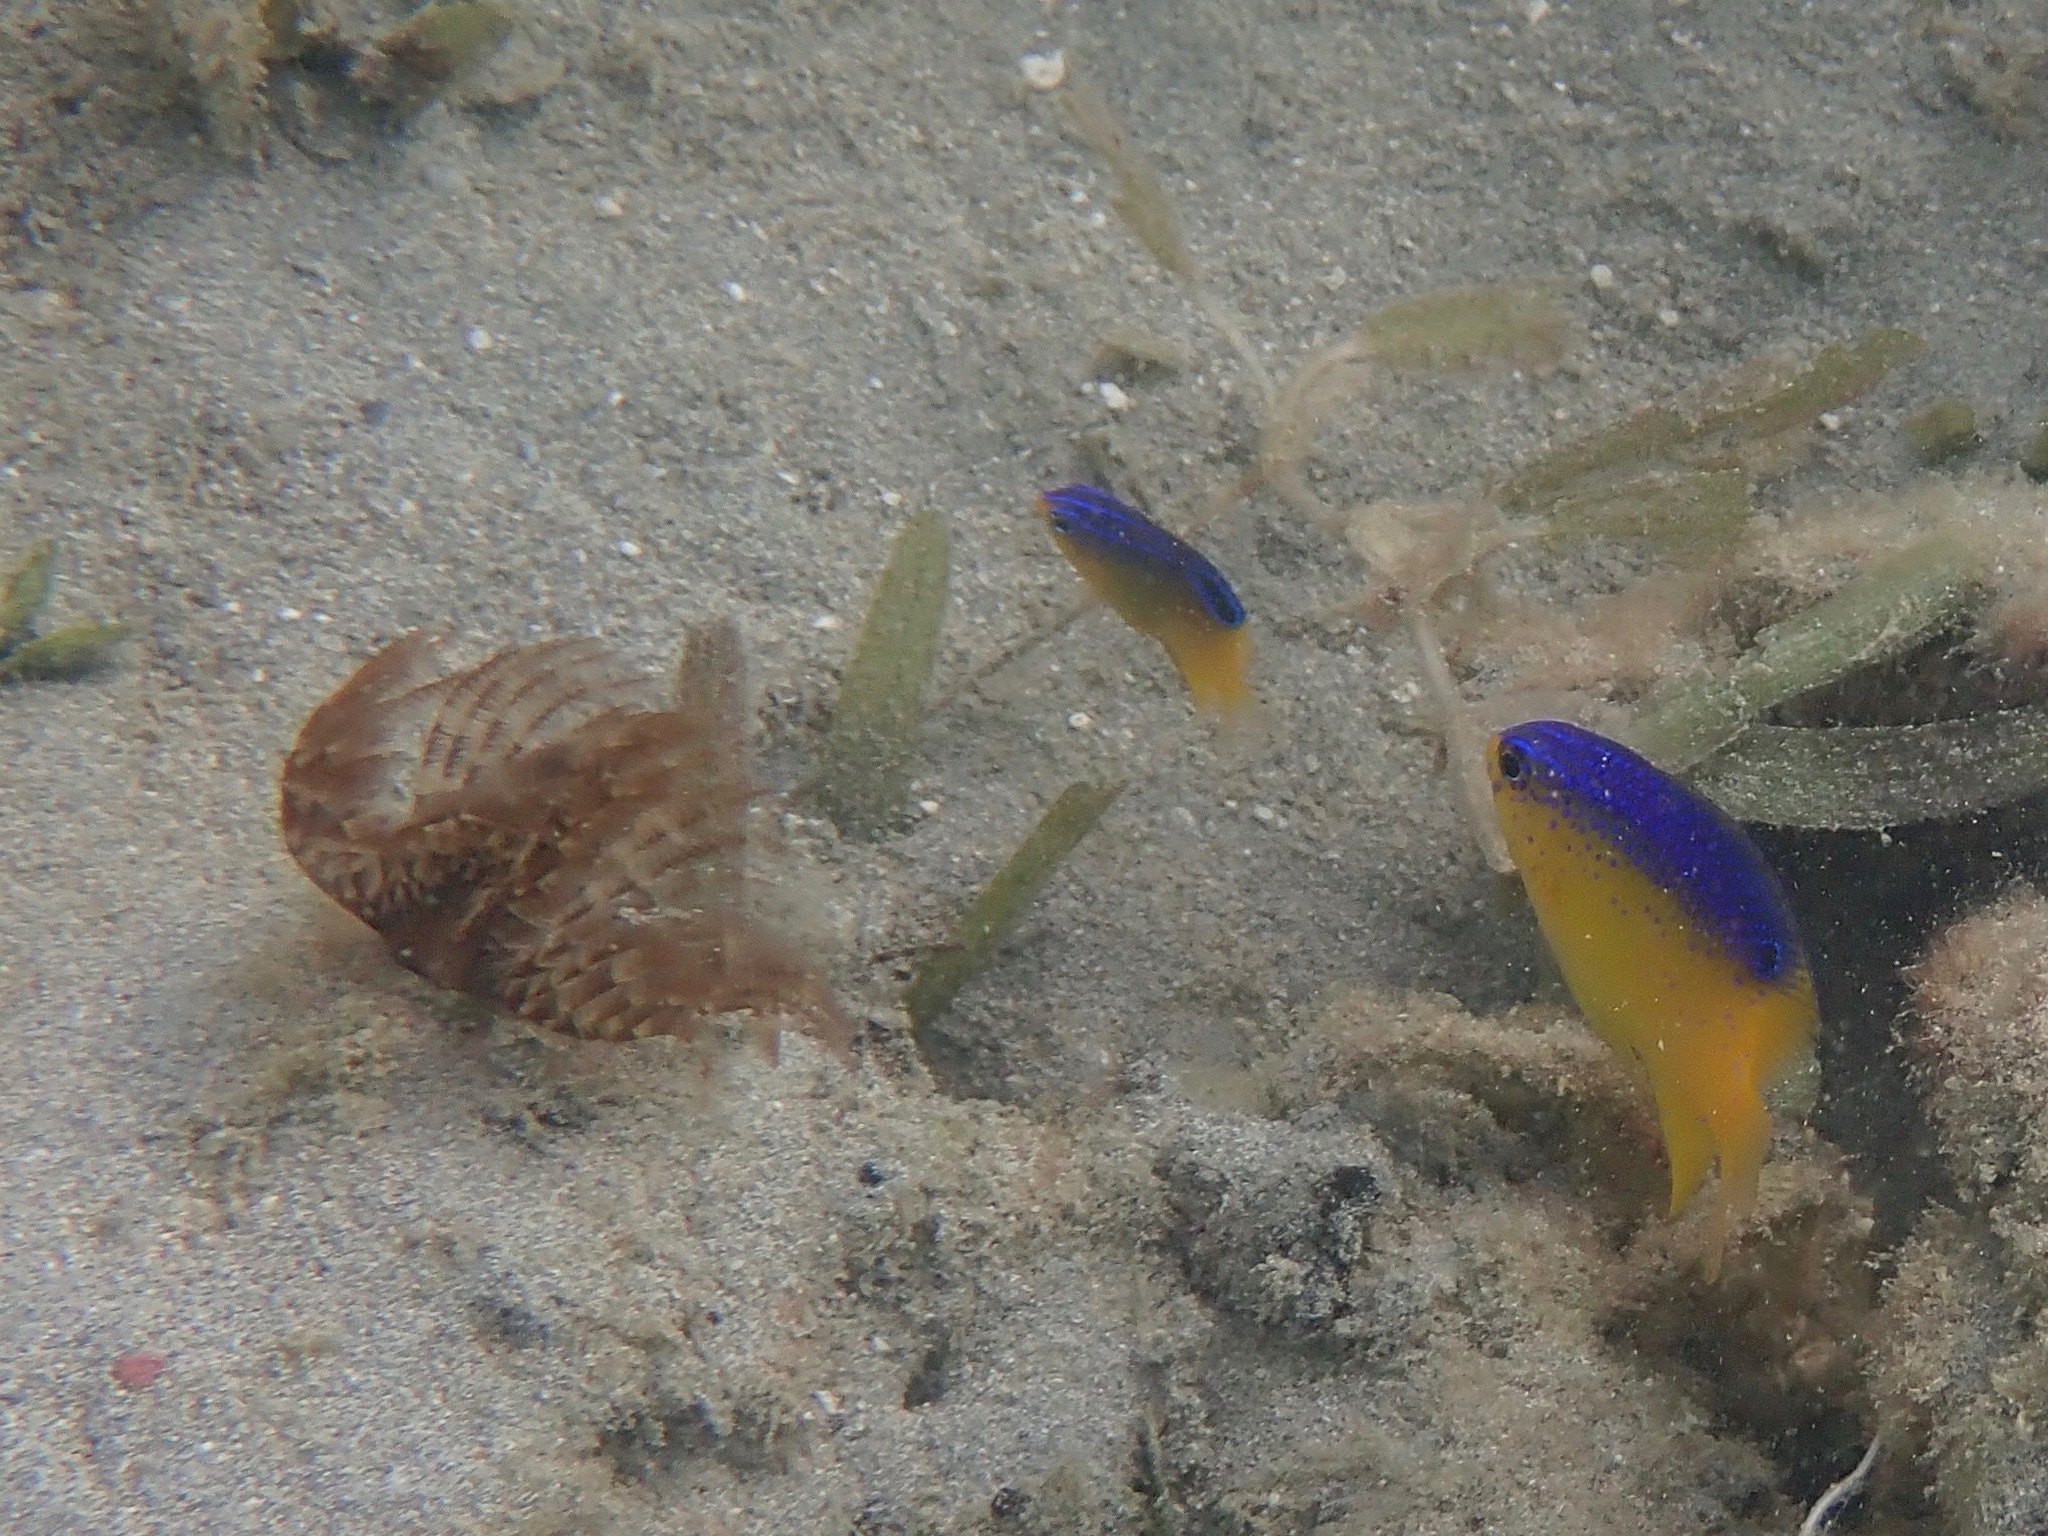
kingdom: Animalia
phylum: Chordata
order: Perciformes
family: Pomacentridae
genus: Stegastes
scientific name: Stegastes leucostictus
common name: Beaugregory
